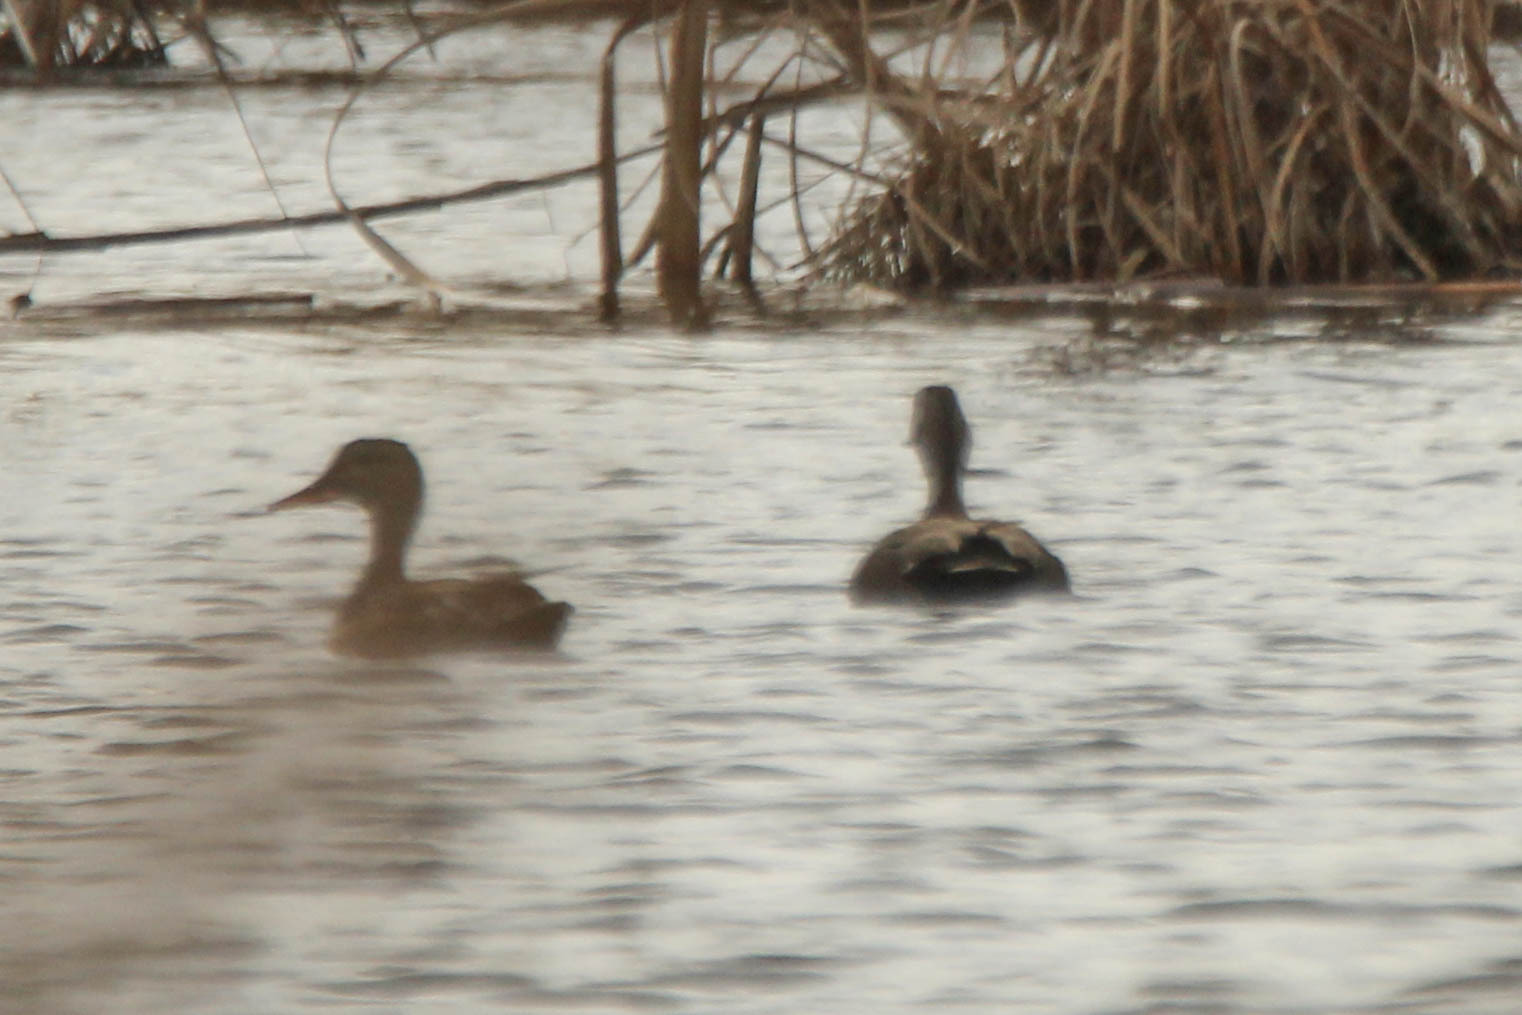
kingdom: Animalia
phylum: Chordata
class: Aves
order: Anseriformes
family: Anatidae
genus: Mareca
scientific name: Mareca strepera
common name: Gadwall
